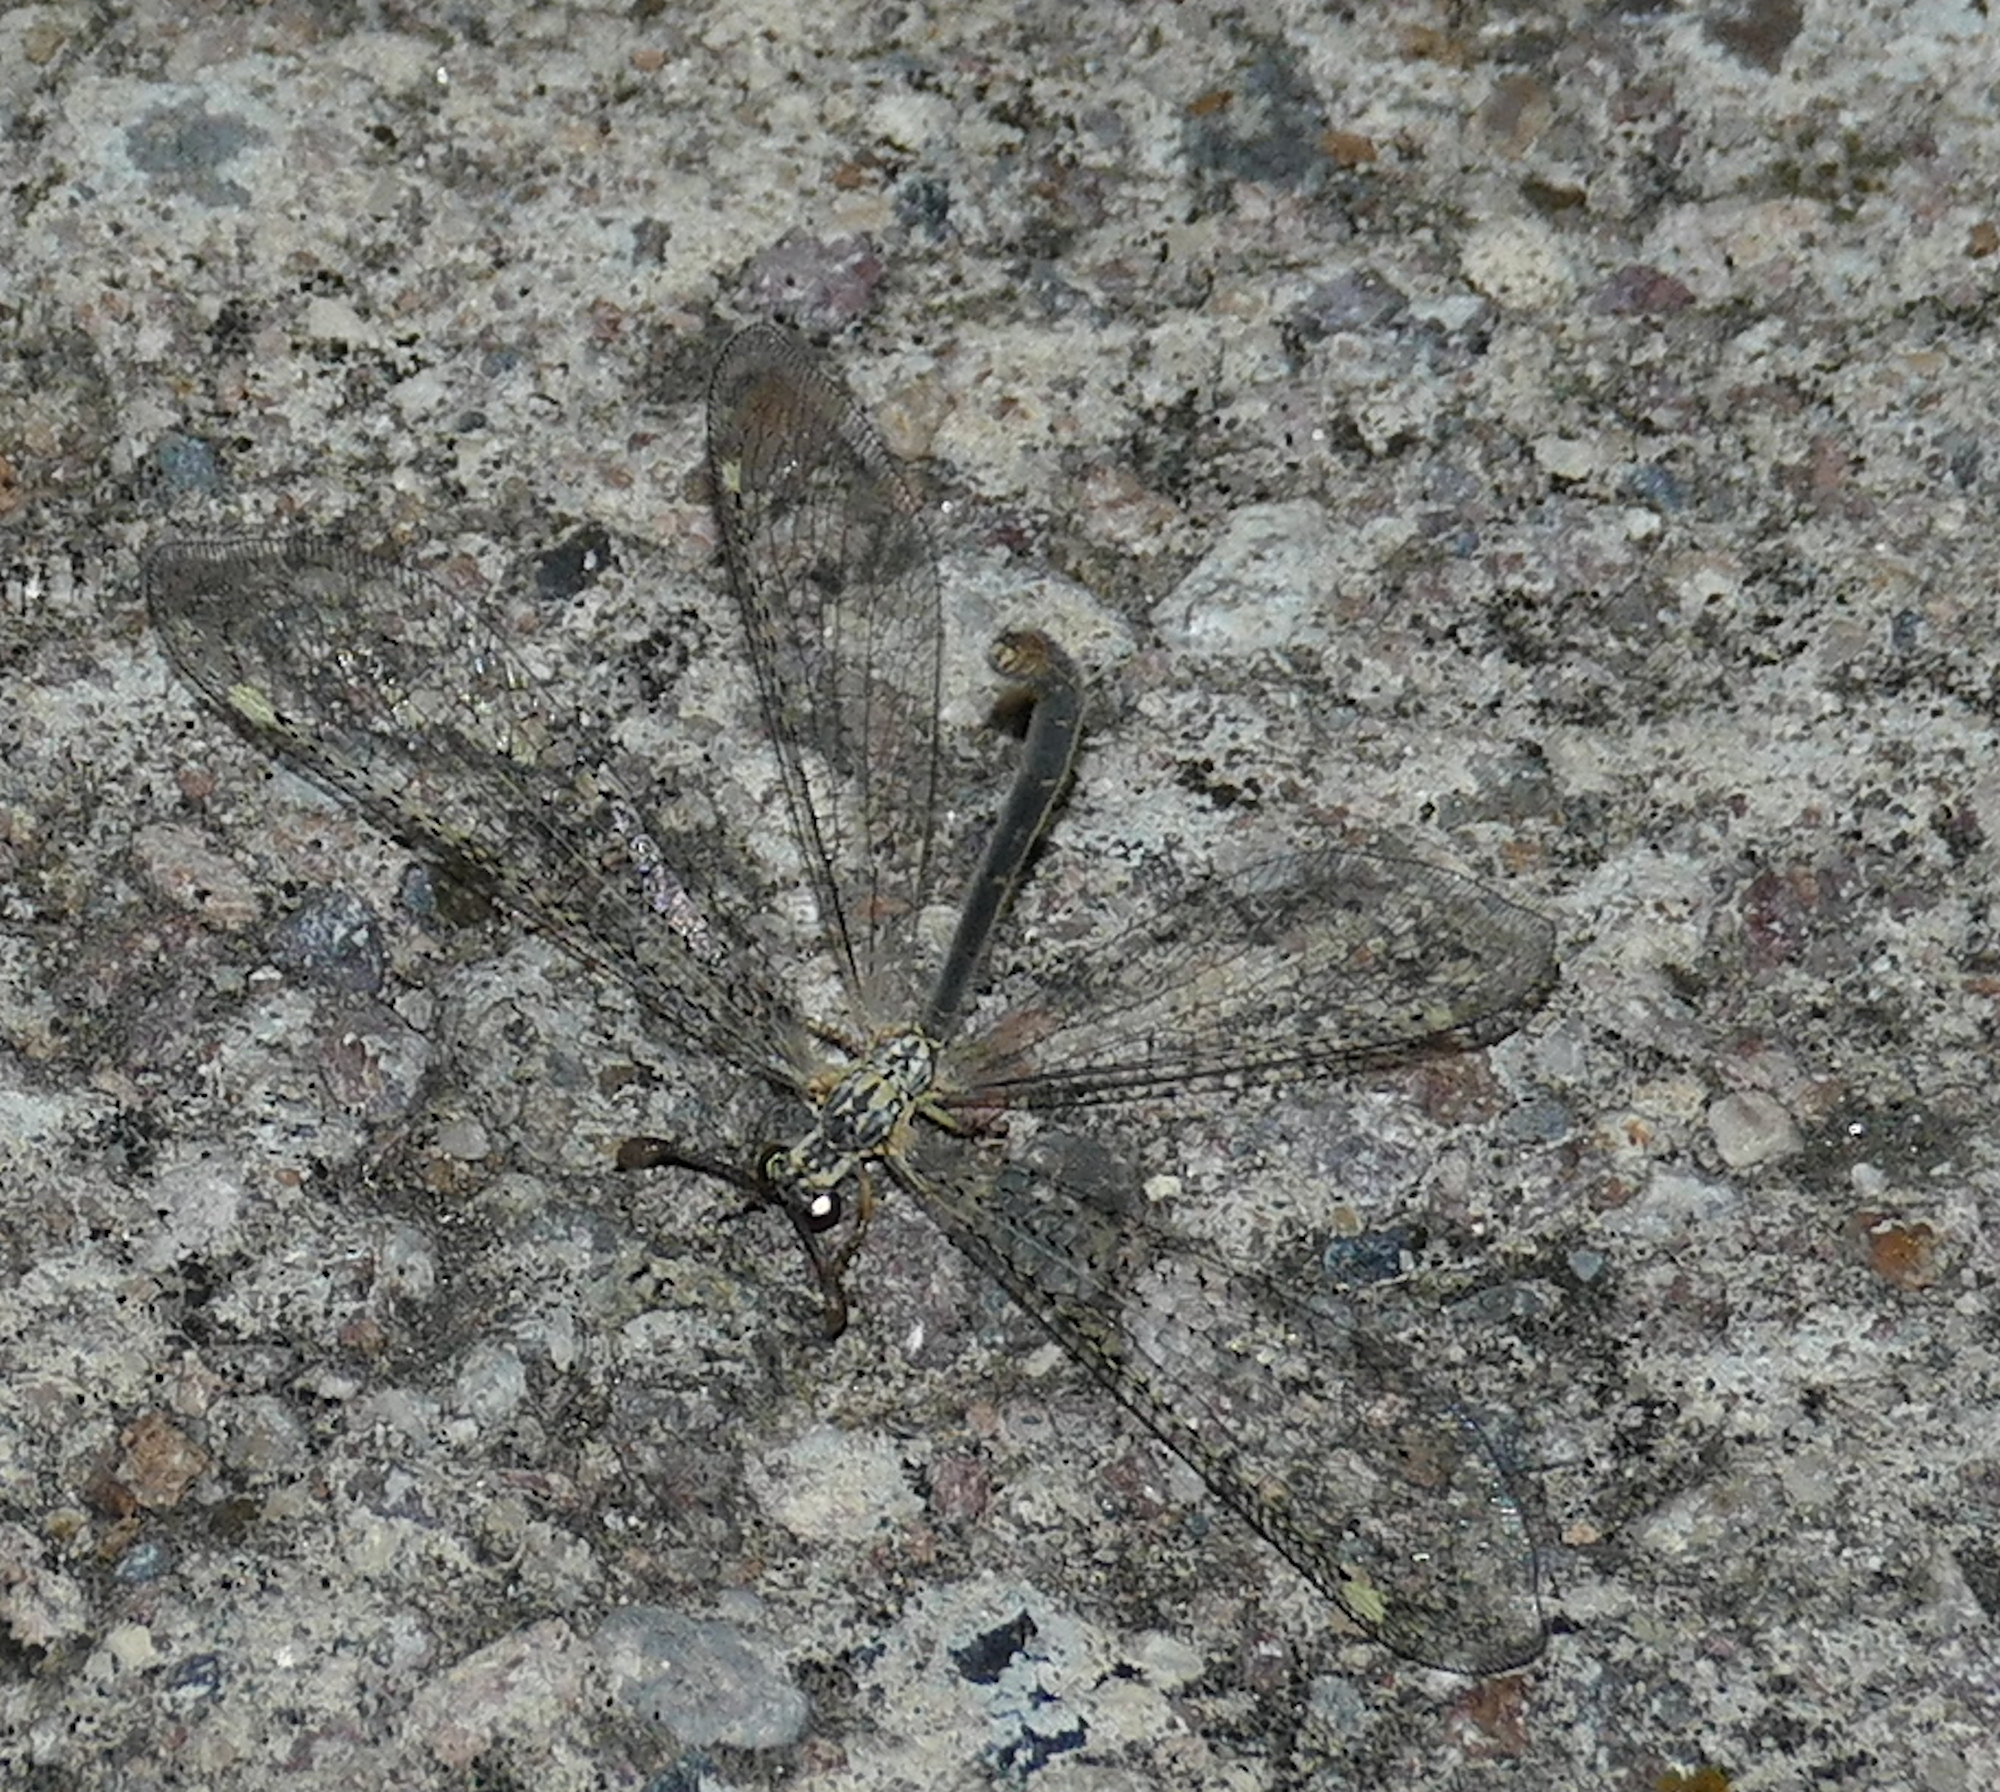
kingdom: Animalia
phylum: Arthropoda
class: Insecta
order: Neuroptera
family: Myrmeleontidae
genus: Clathroneuria
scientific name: Clathroneuria coquilletti
